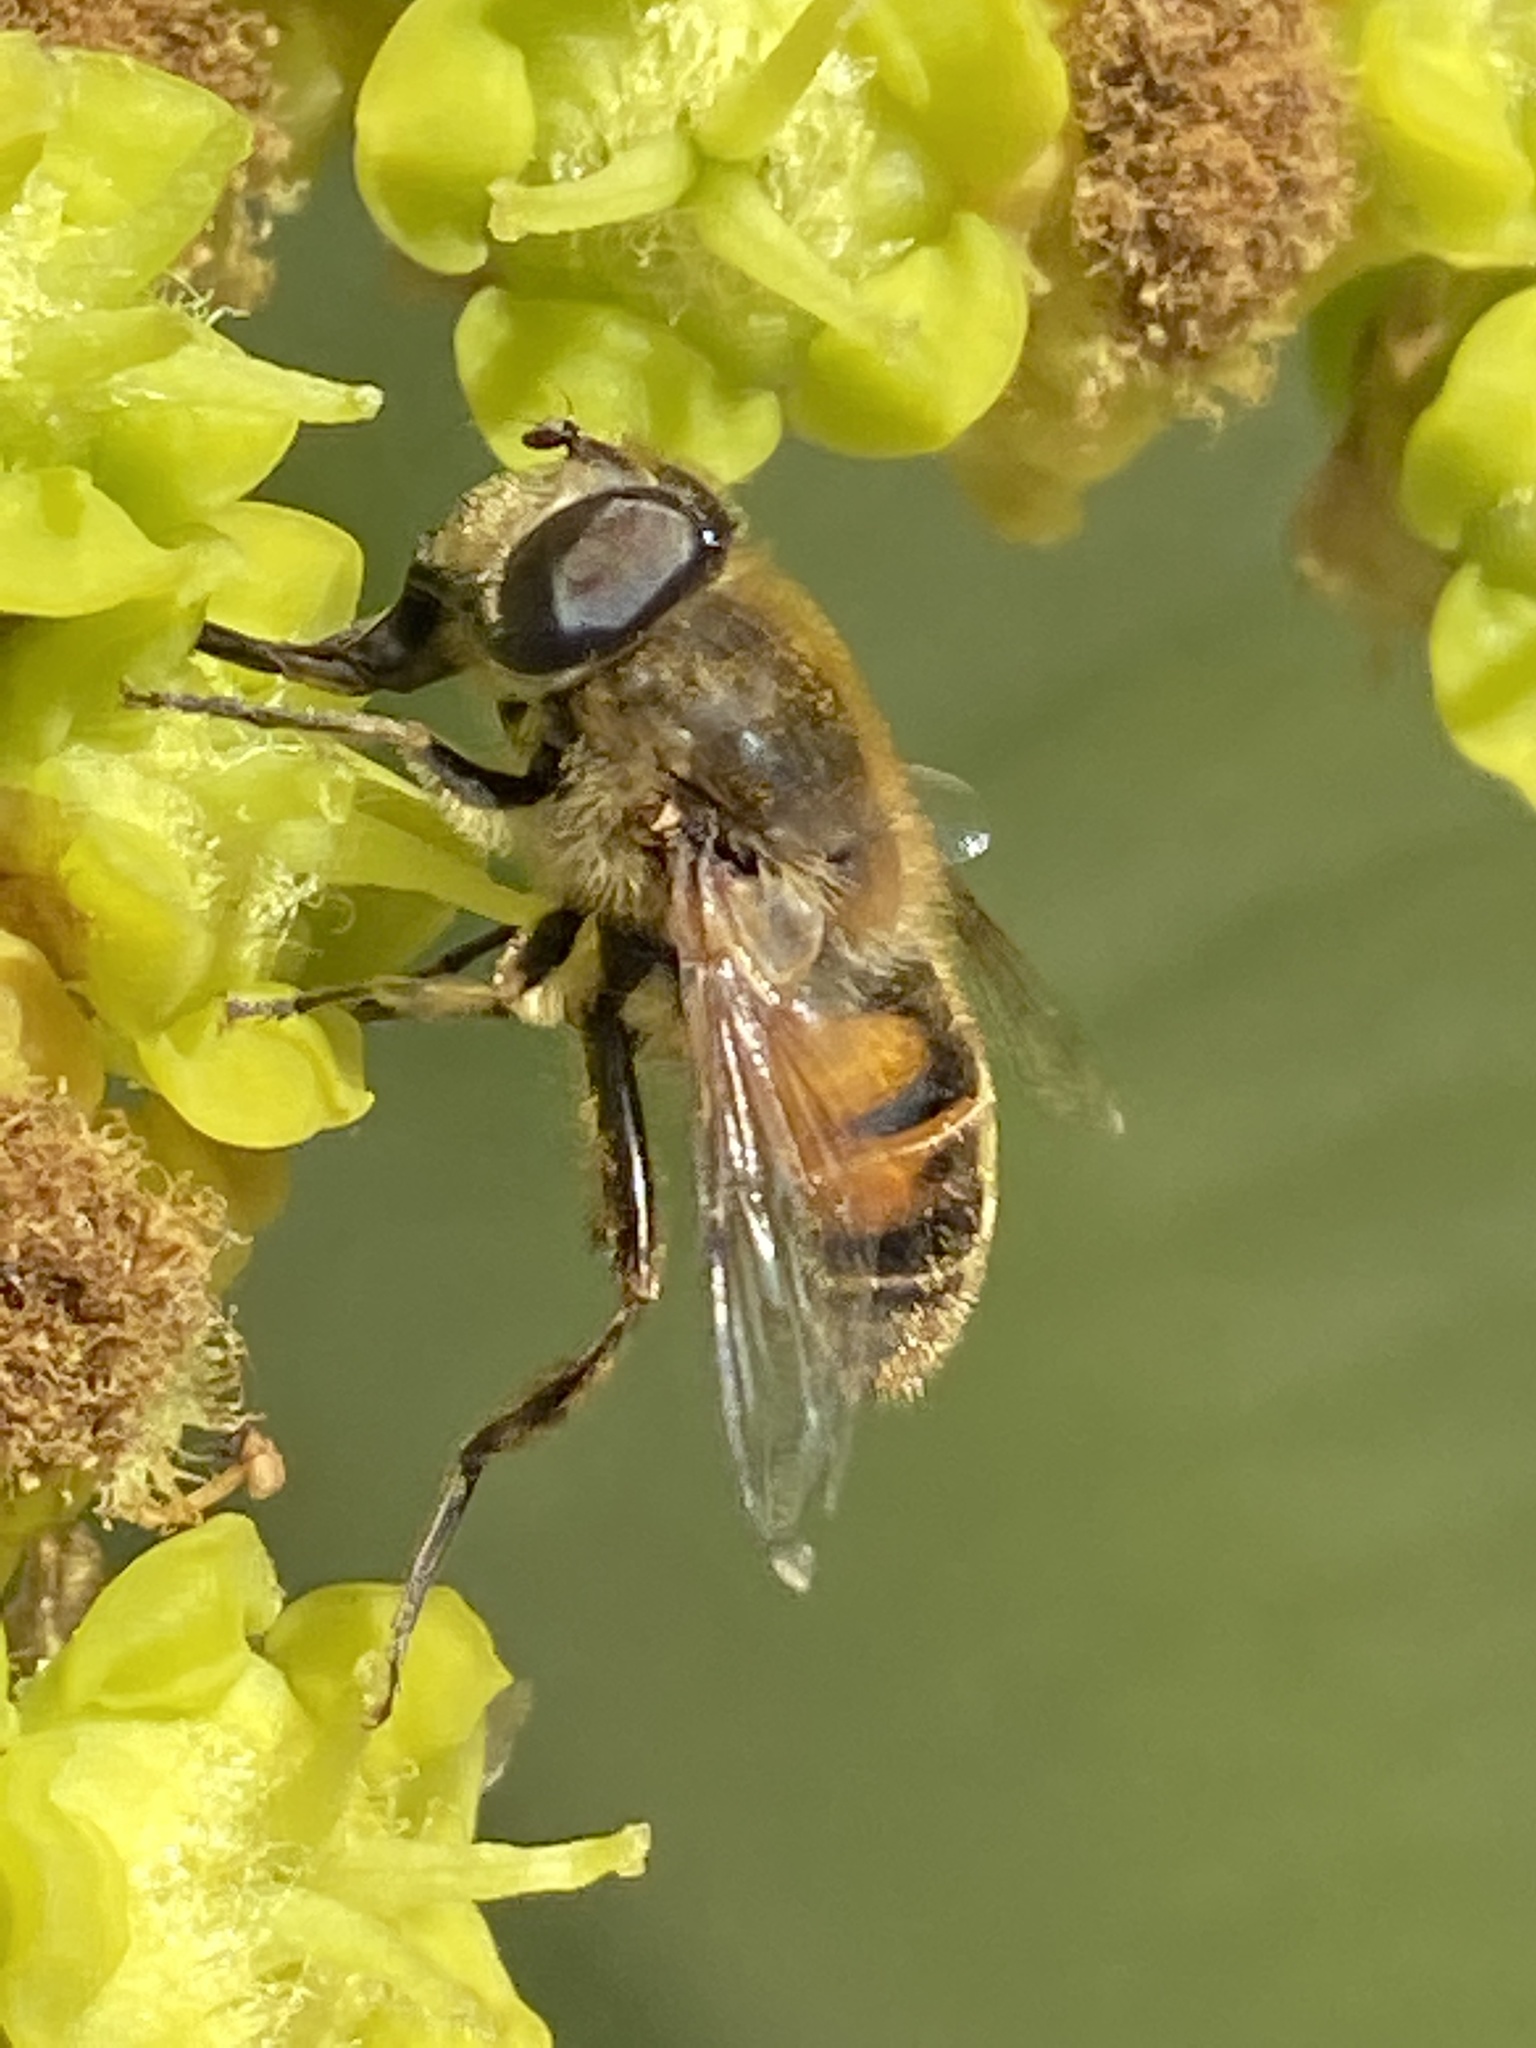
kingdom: Animalia
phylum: Arthropoda
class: Insecta
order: Diptera
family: Syrphidae
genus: Eristalis
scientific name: Eristalis tenax
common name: Drone fly
